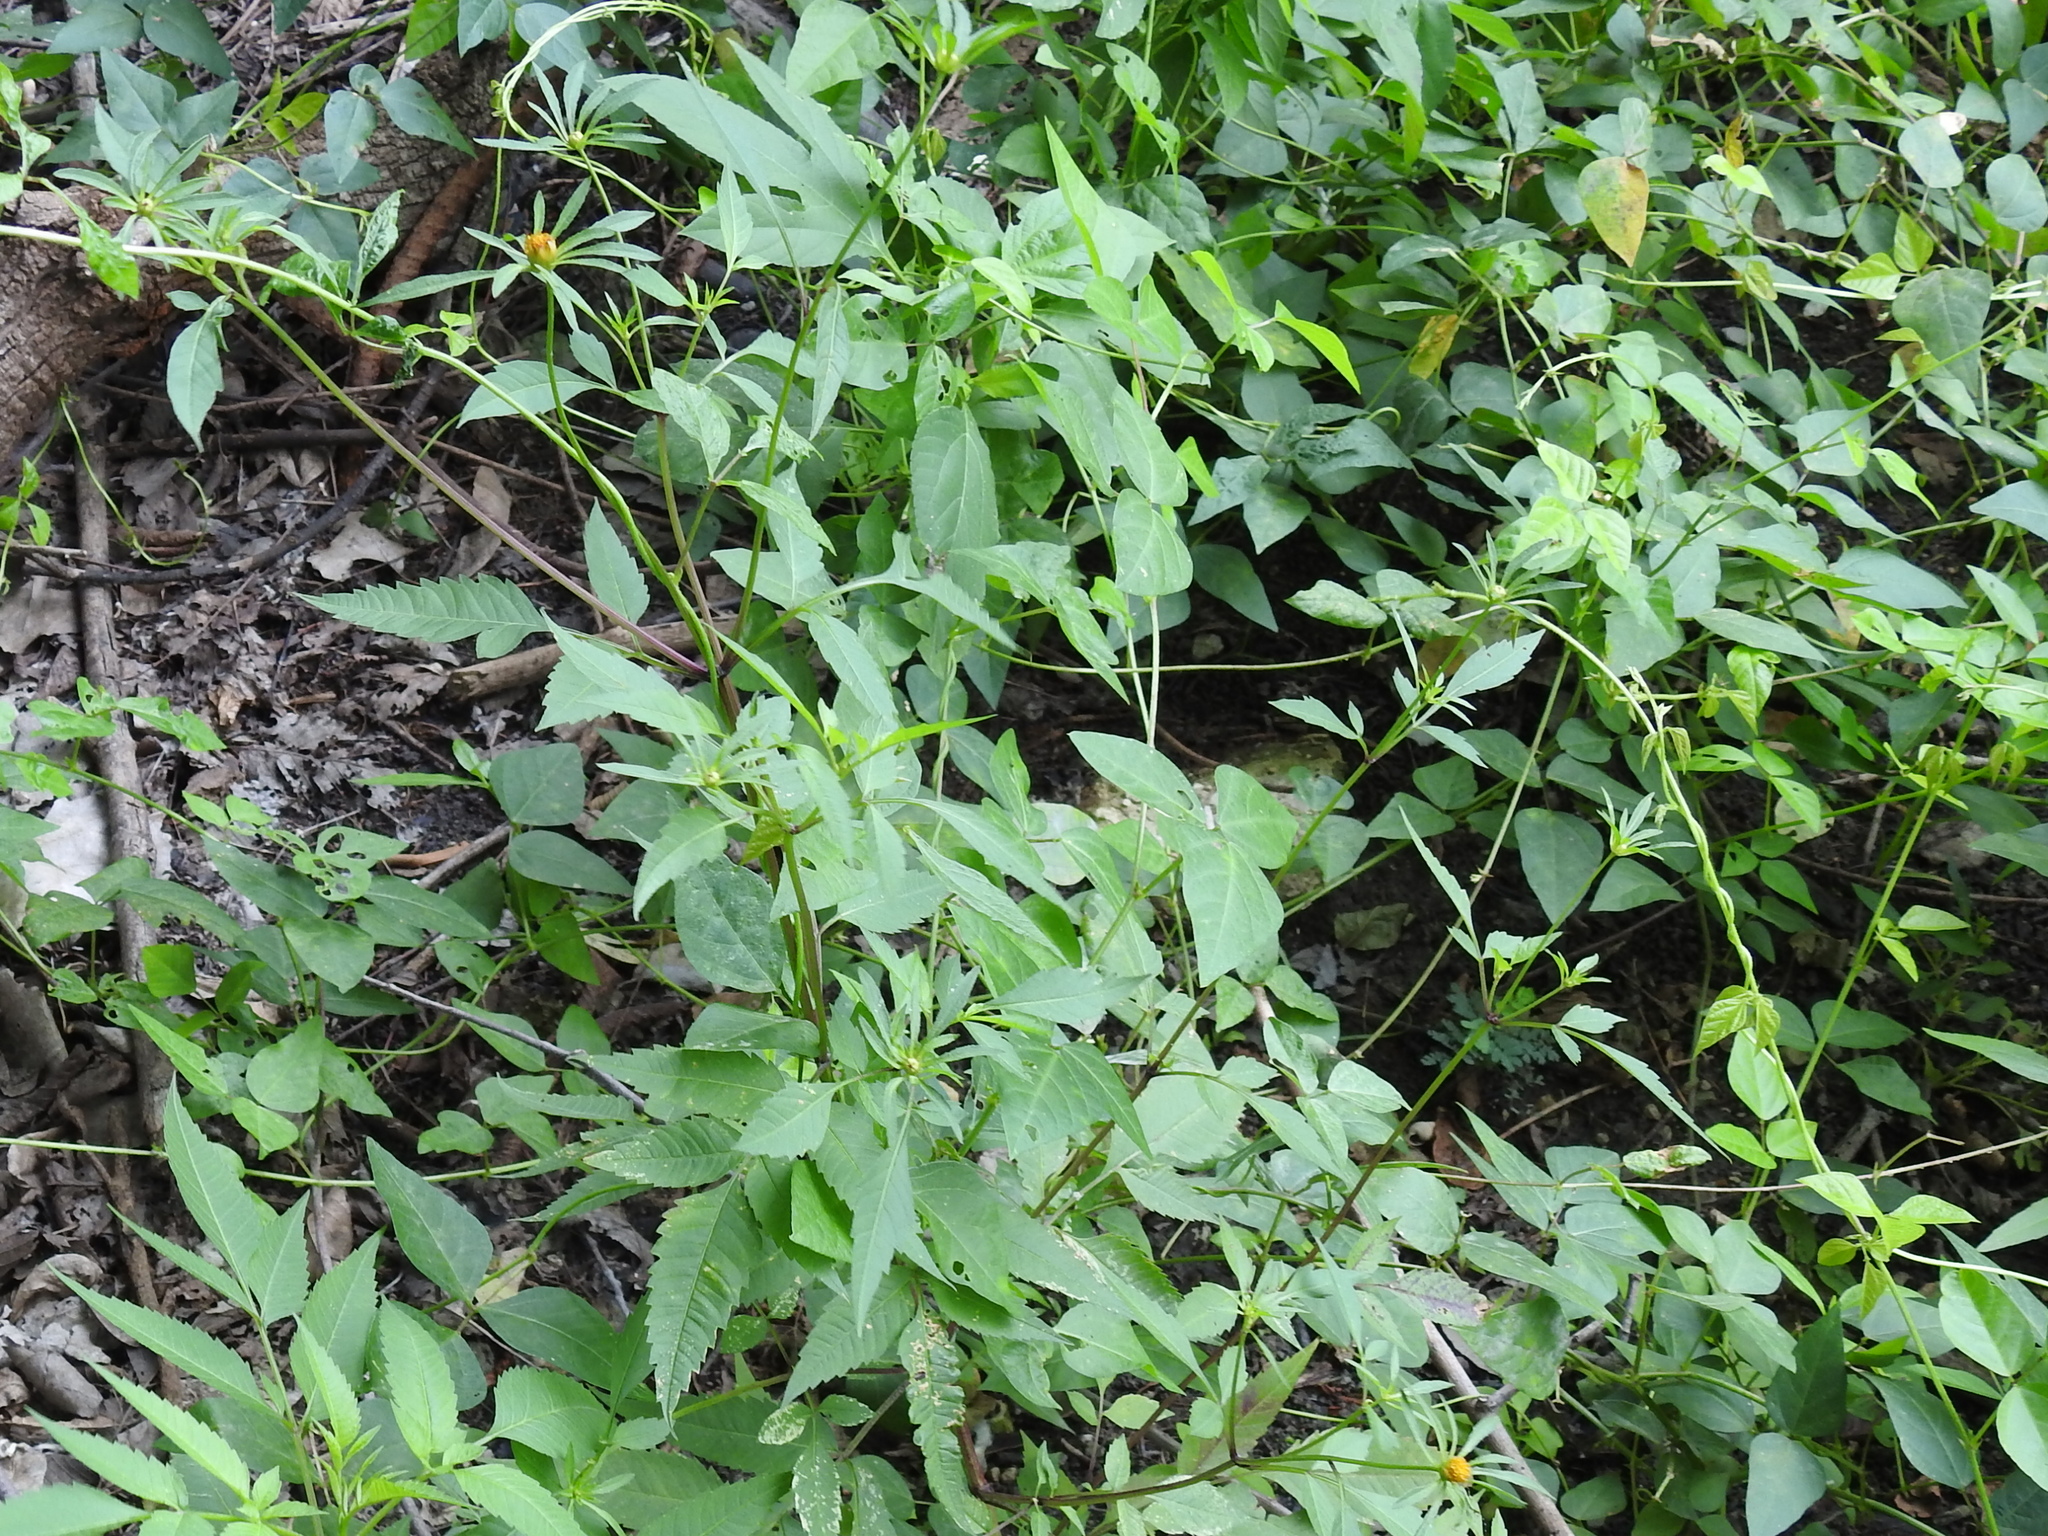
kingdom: Plantae
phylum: Tracheophyta
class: Magnoliopsida
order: Asterales
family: Asteraceae
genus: Bidens
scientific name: Bidens frondosa
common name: Beggarticks
